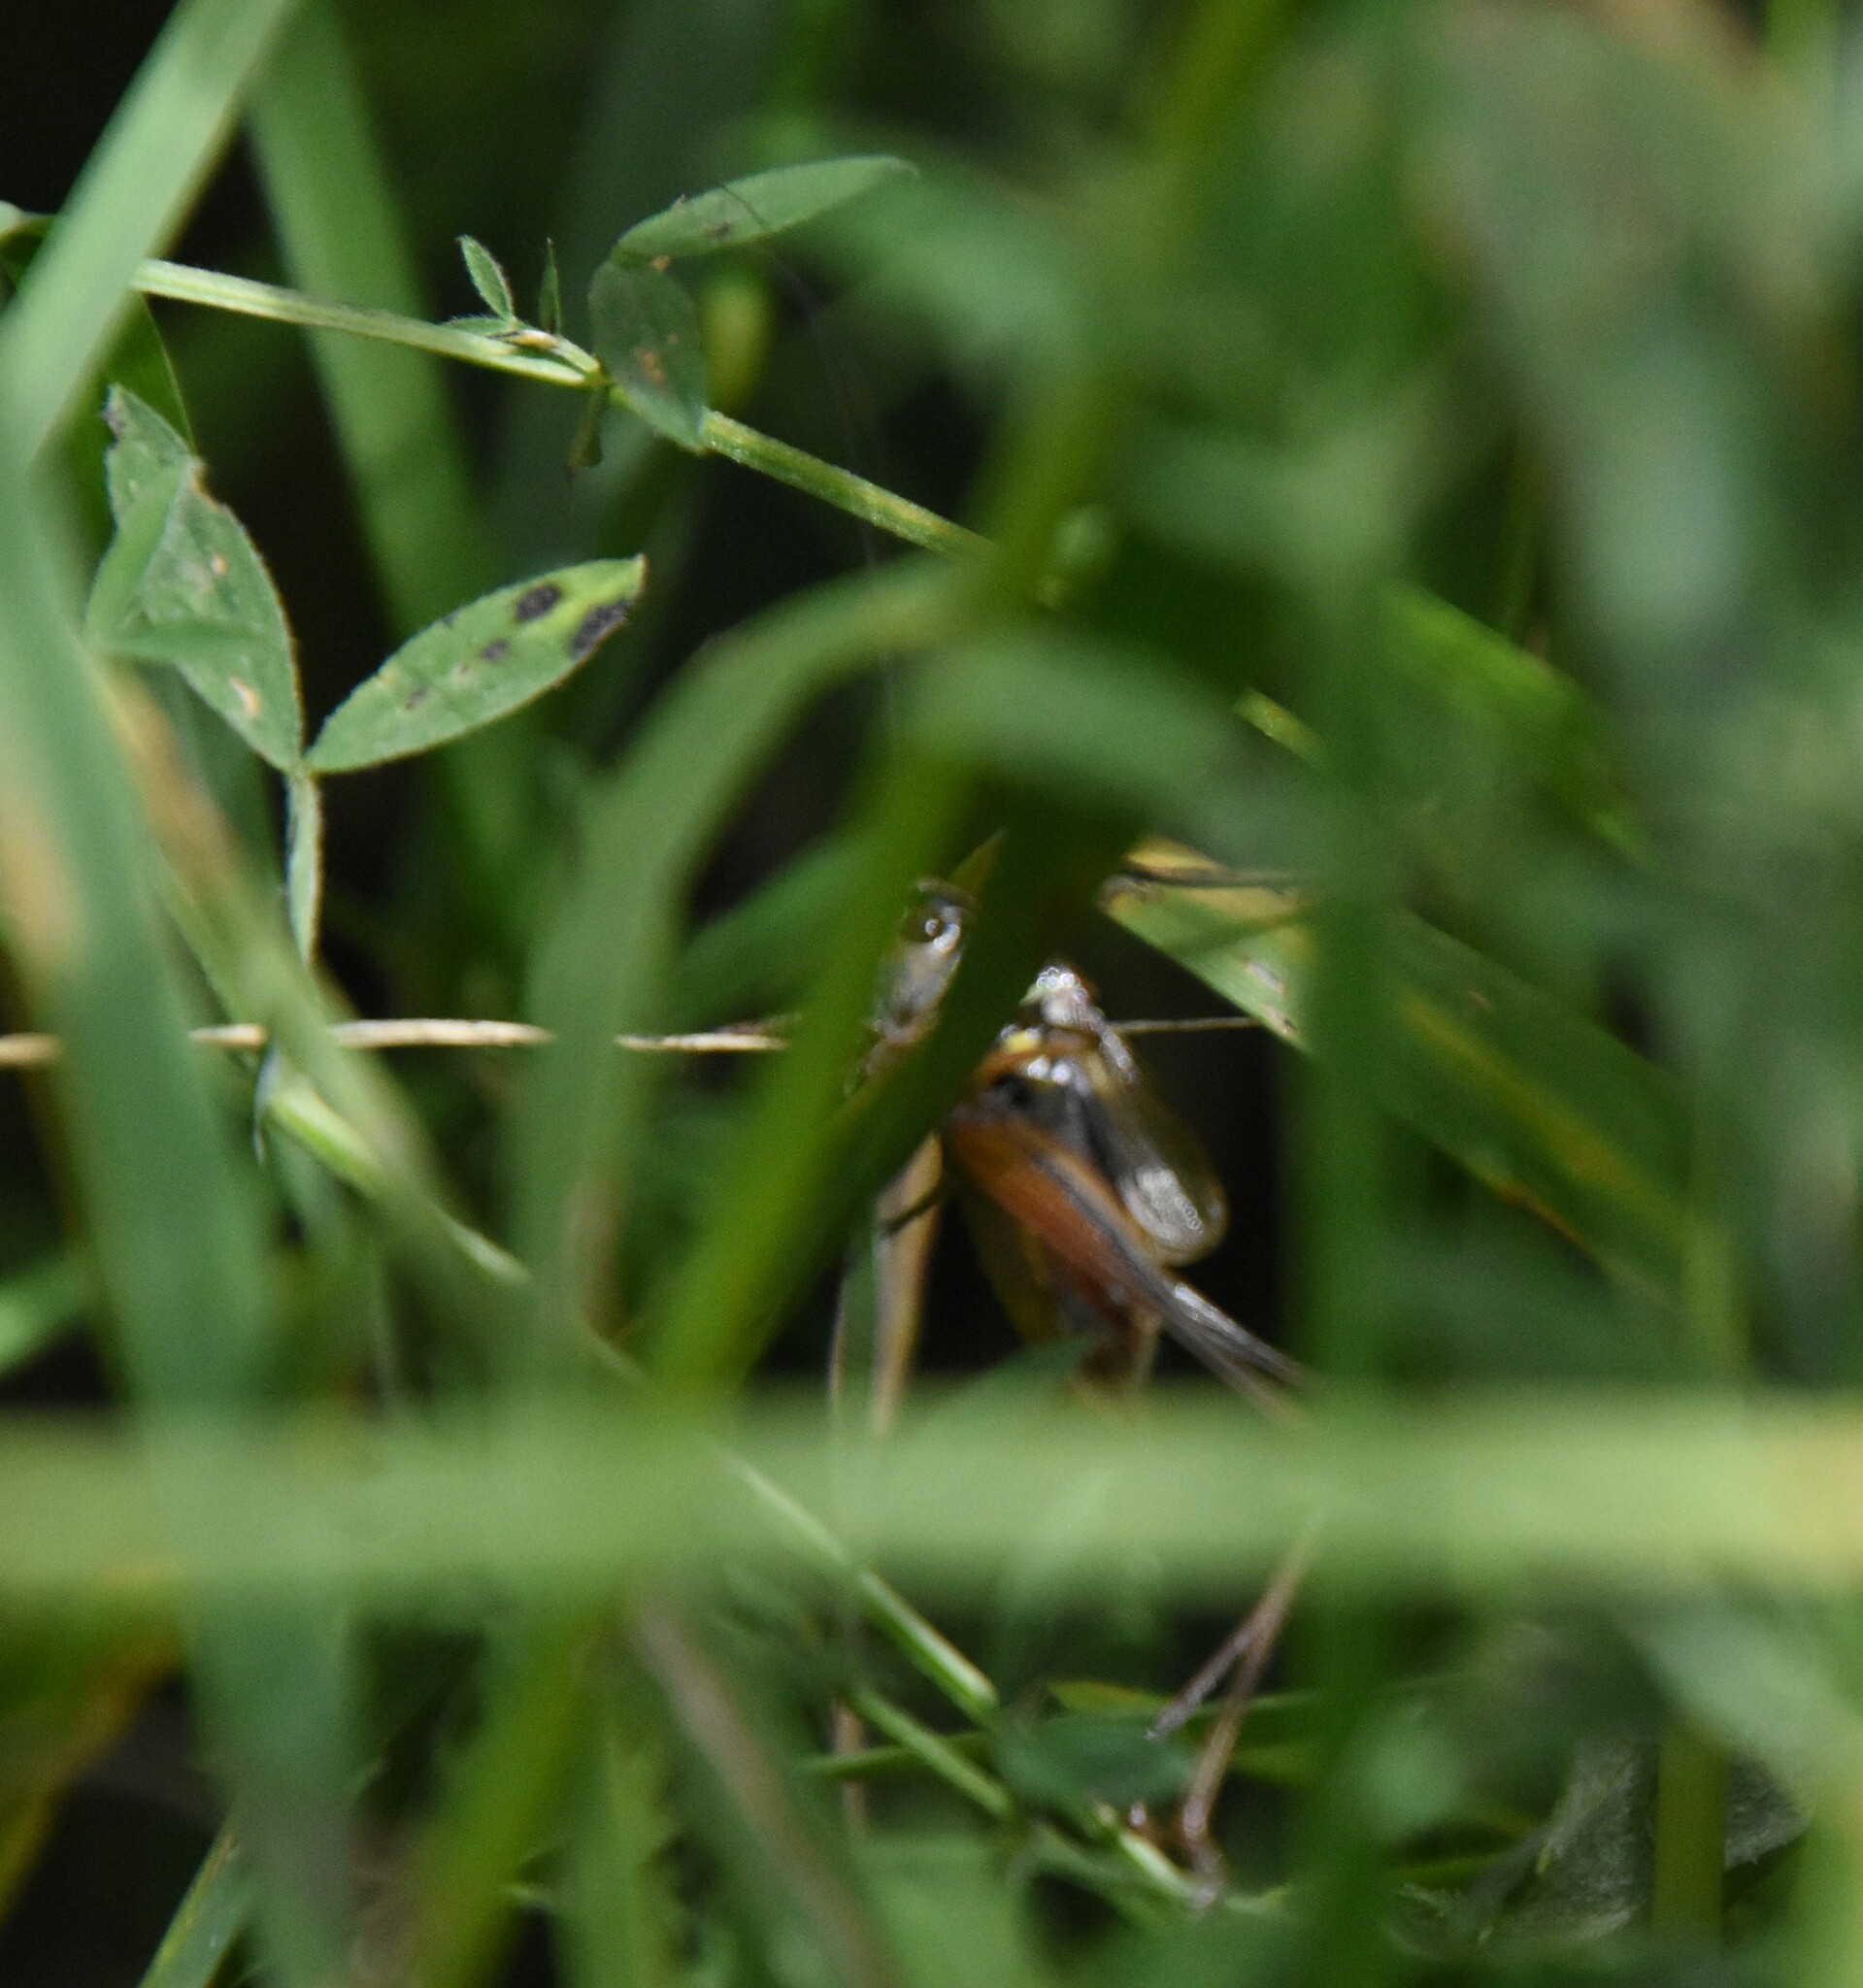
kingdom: Animalia
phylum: Arthropoda
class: Insecta
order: Orthoptera
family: Tettigoniidae
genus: Roeseliana
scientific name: Roeseliana roeselii
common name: Roesel's bush cricket
